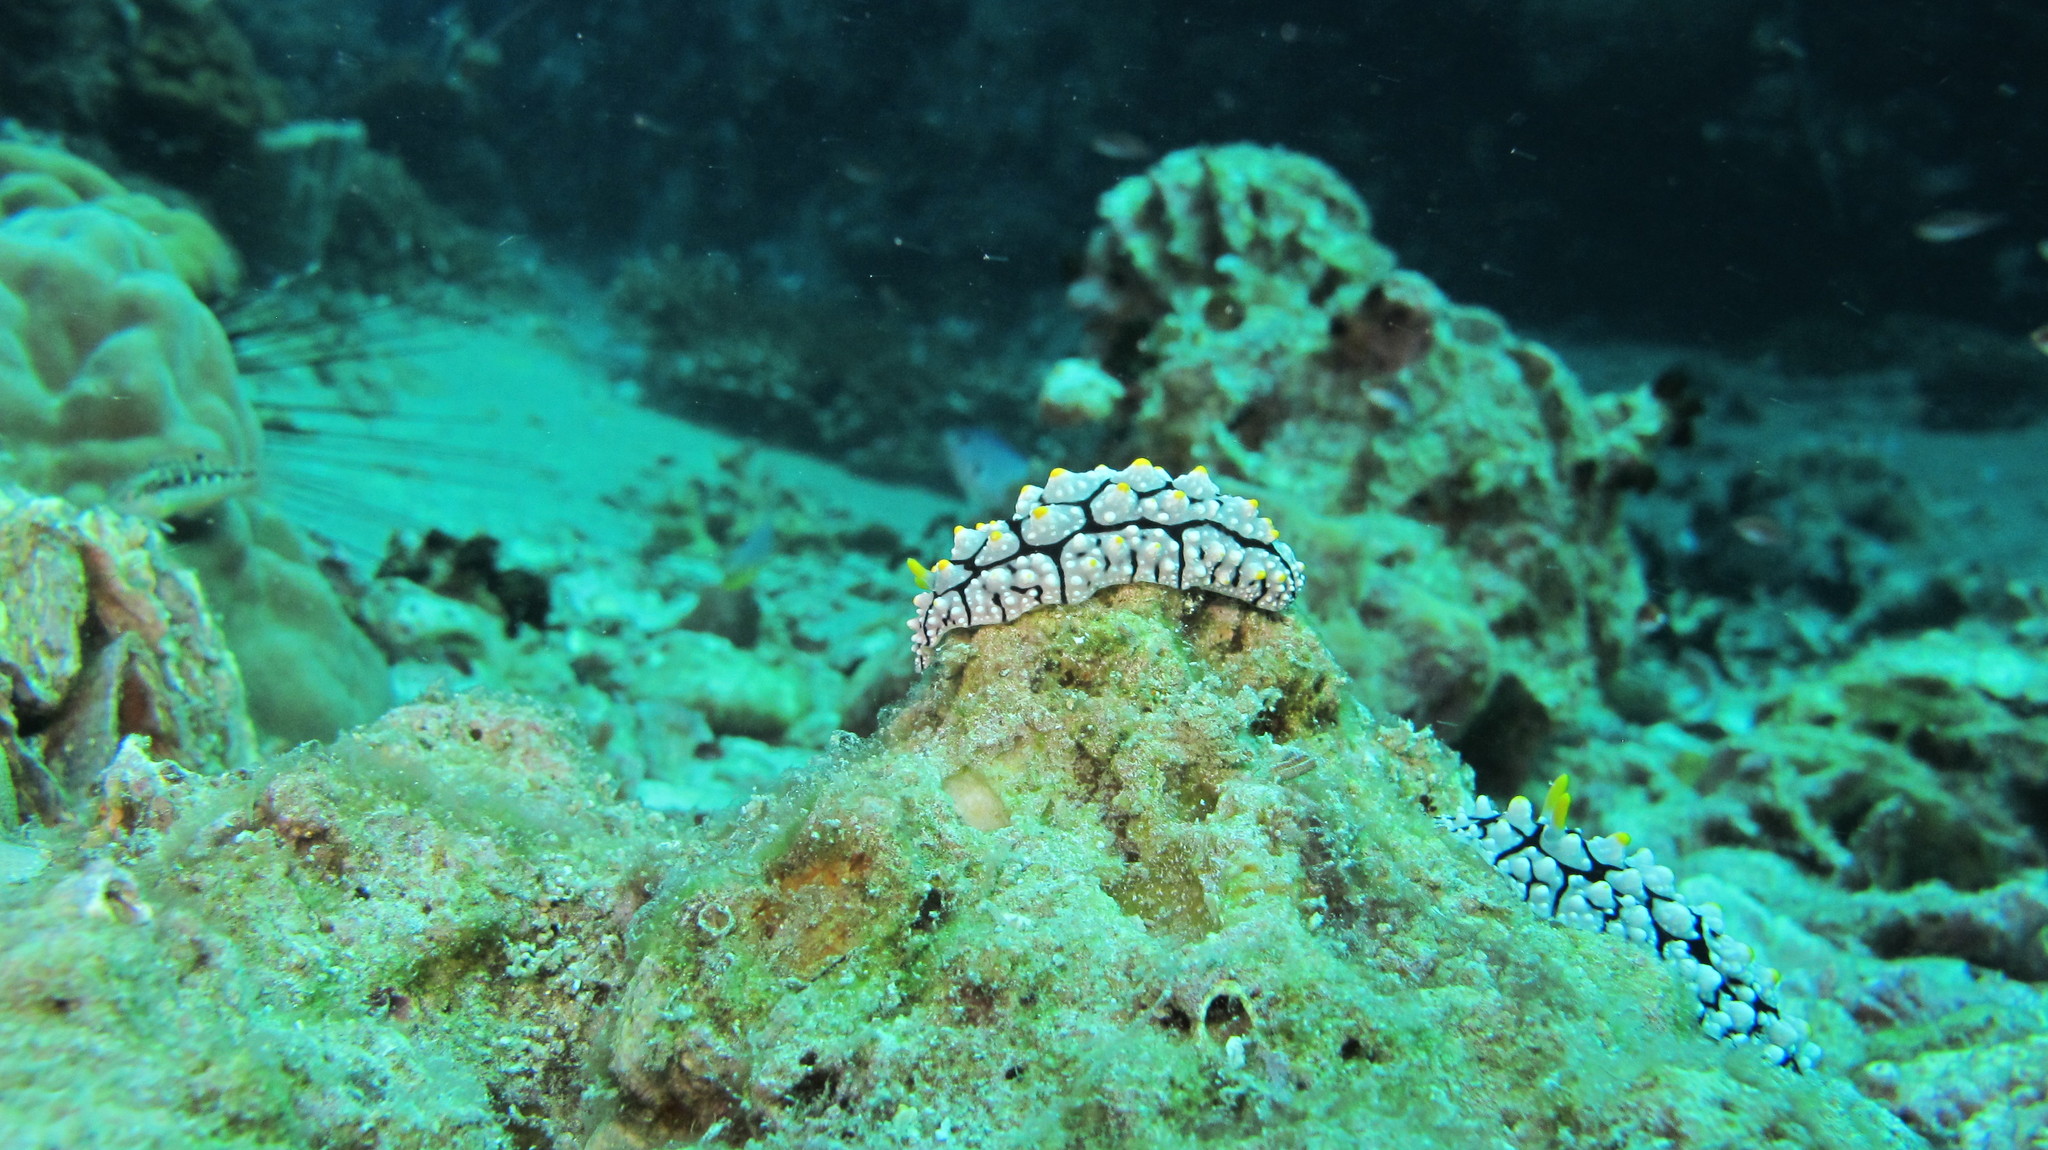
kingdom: Animalia
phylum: Mollusca
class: Gastropoda
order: Nudibranchia
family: Phyllidiidae
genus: Phyllidia
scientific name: Phyllidia elegans
